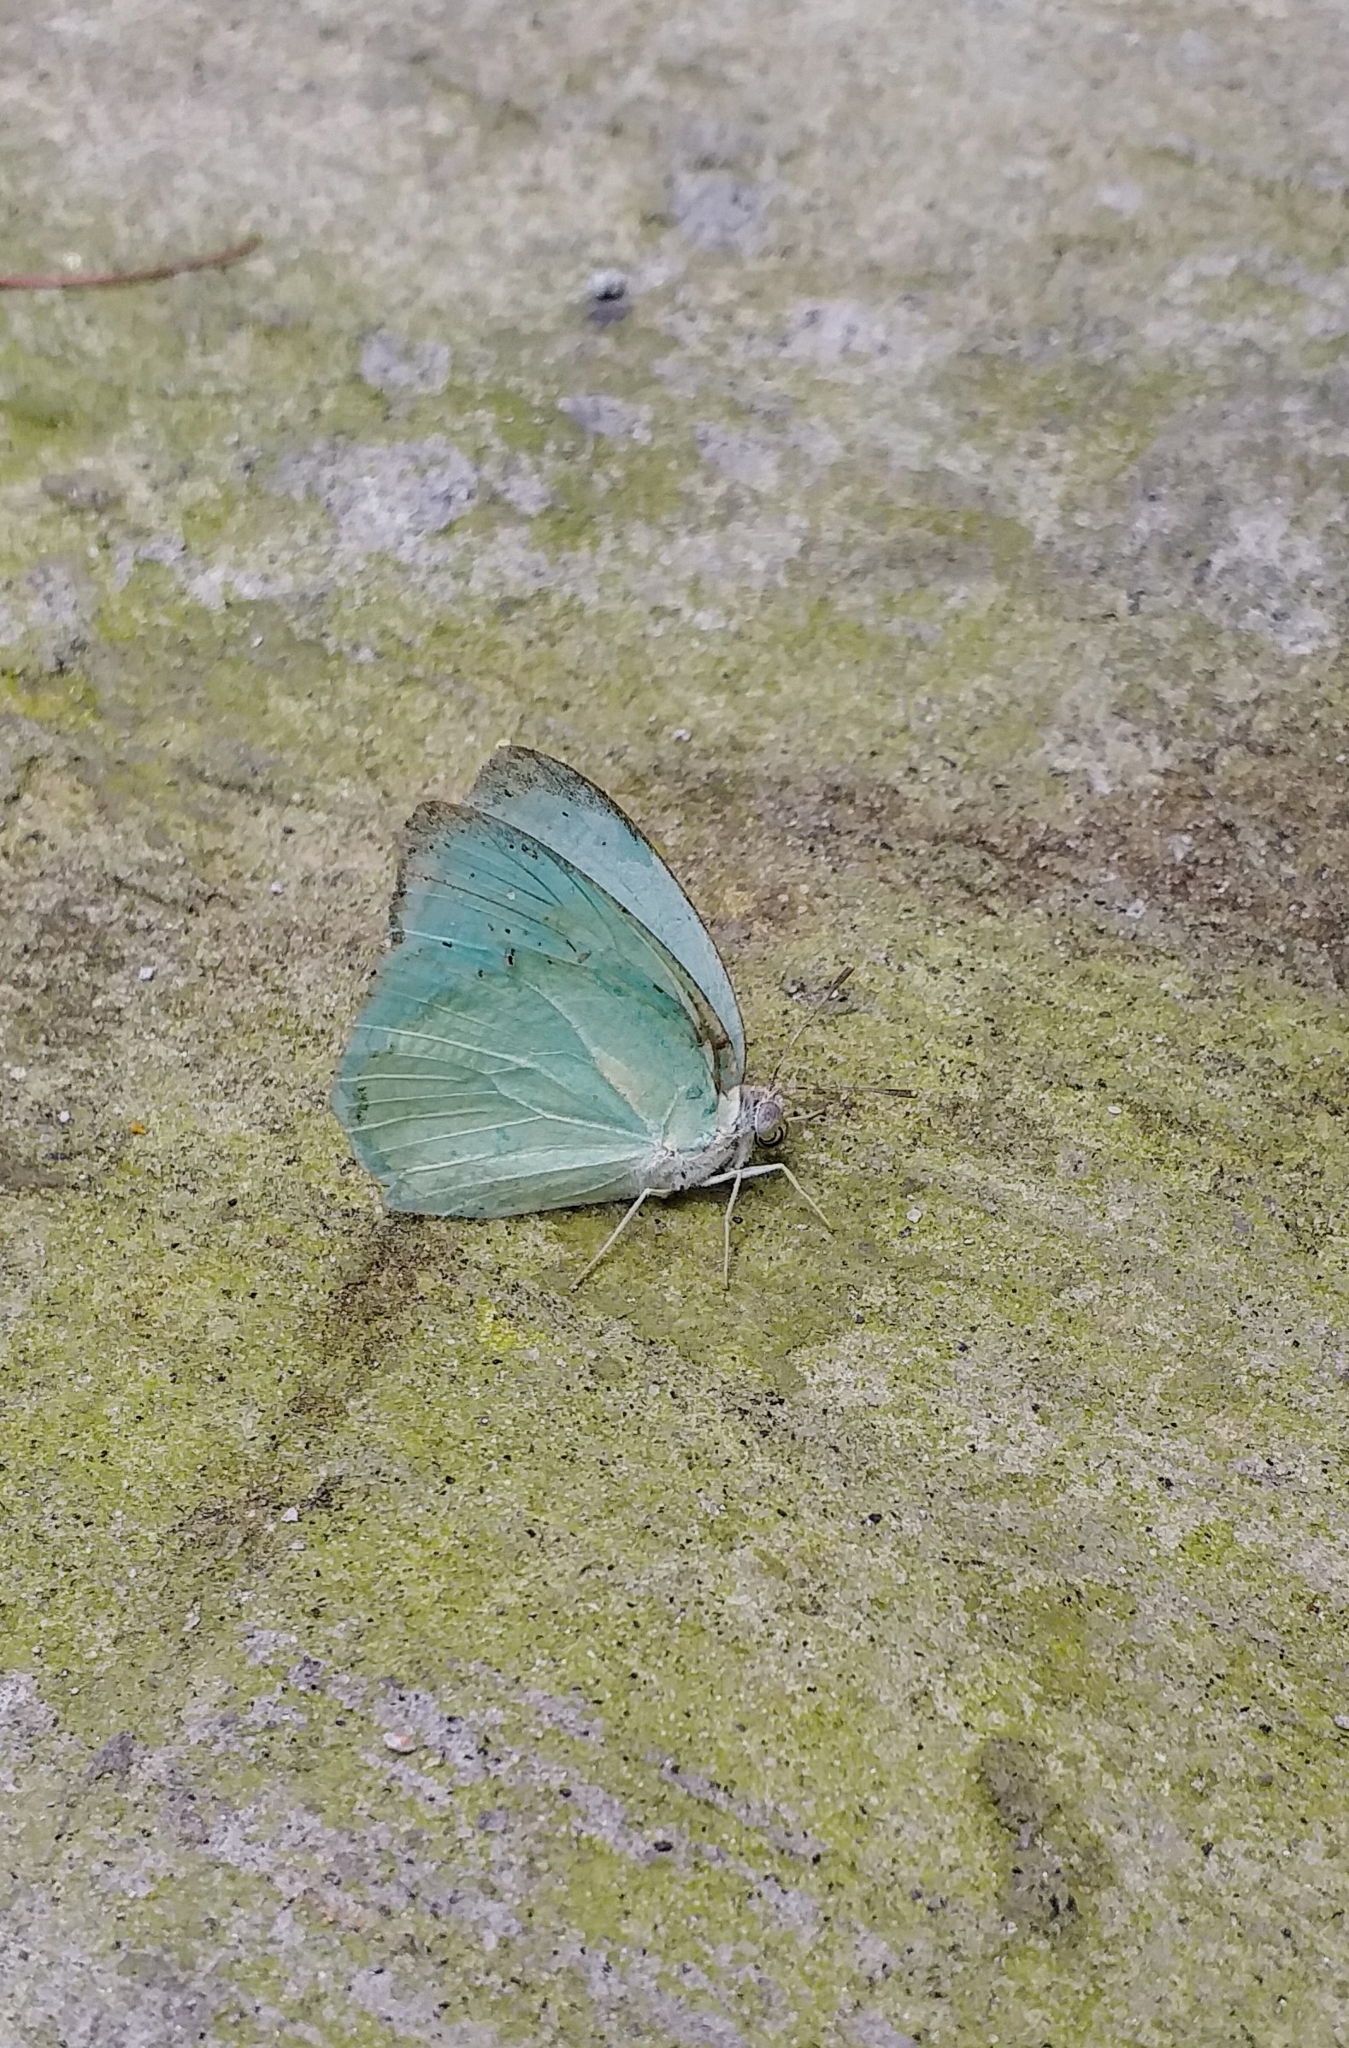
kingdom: Animalia
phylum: Arthropoda
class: Insecta
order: Lepidoptera
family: Pieridae
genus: Catopsilia
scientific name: Catopsilia pyranthe
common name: Mottled emigrant
